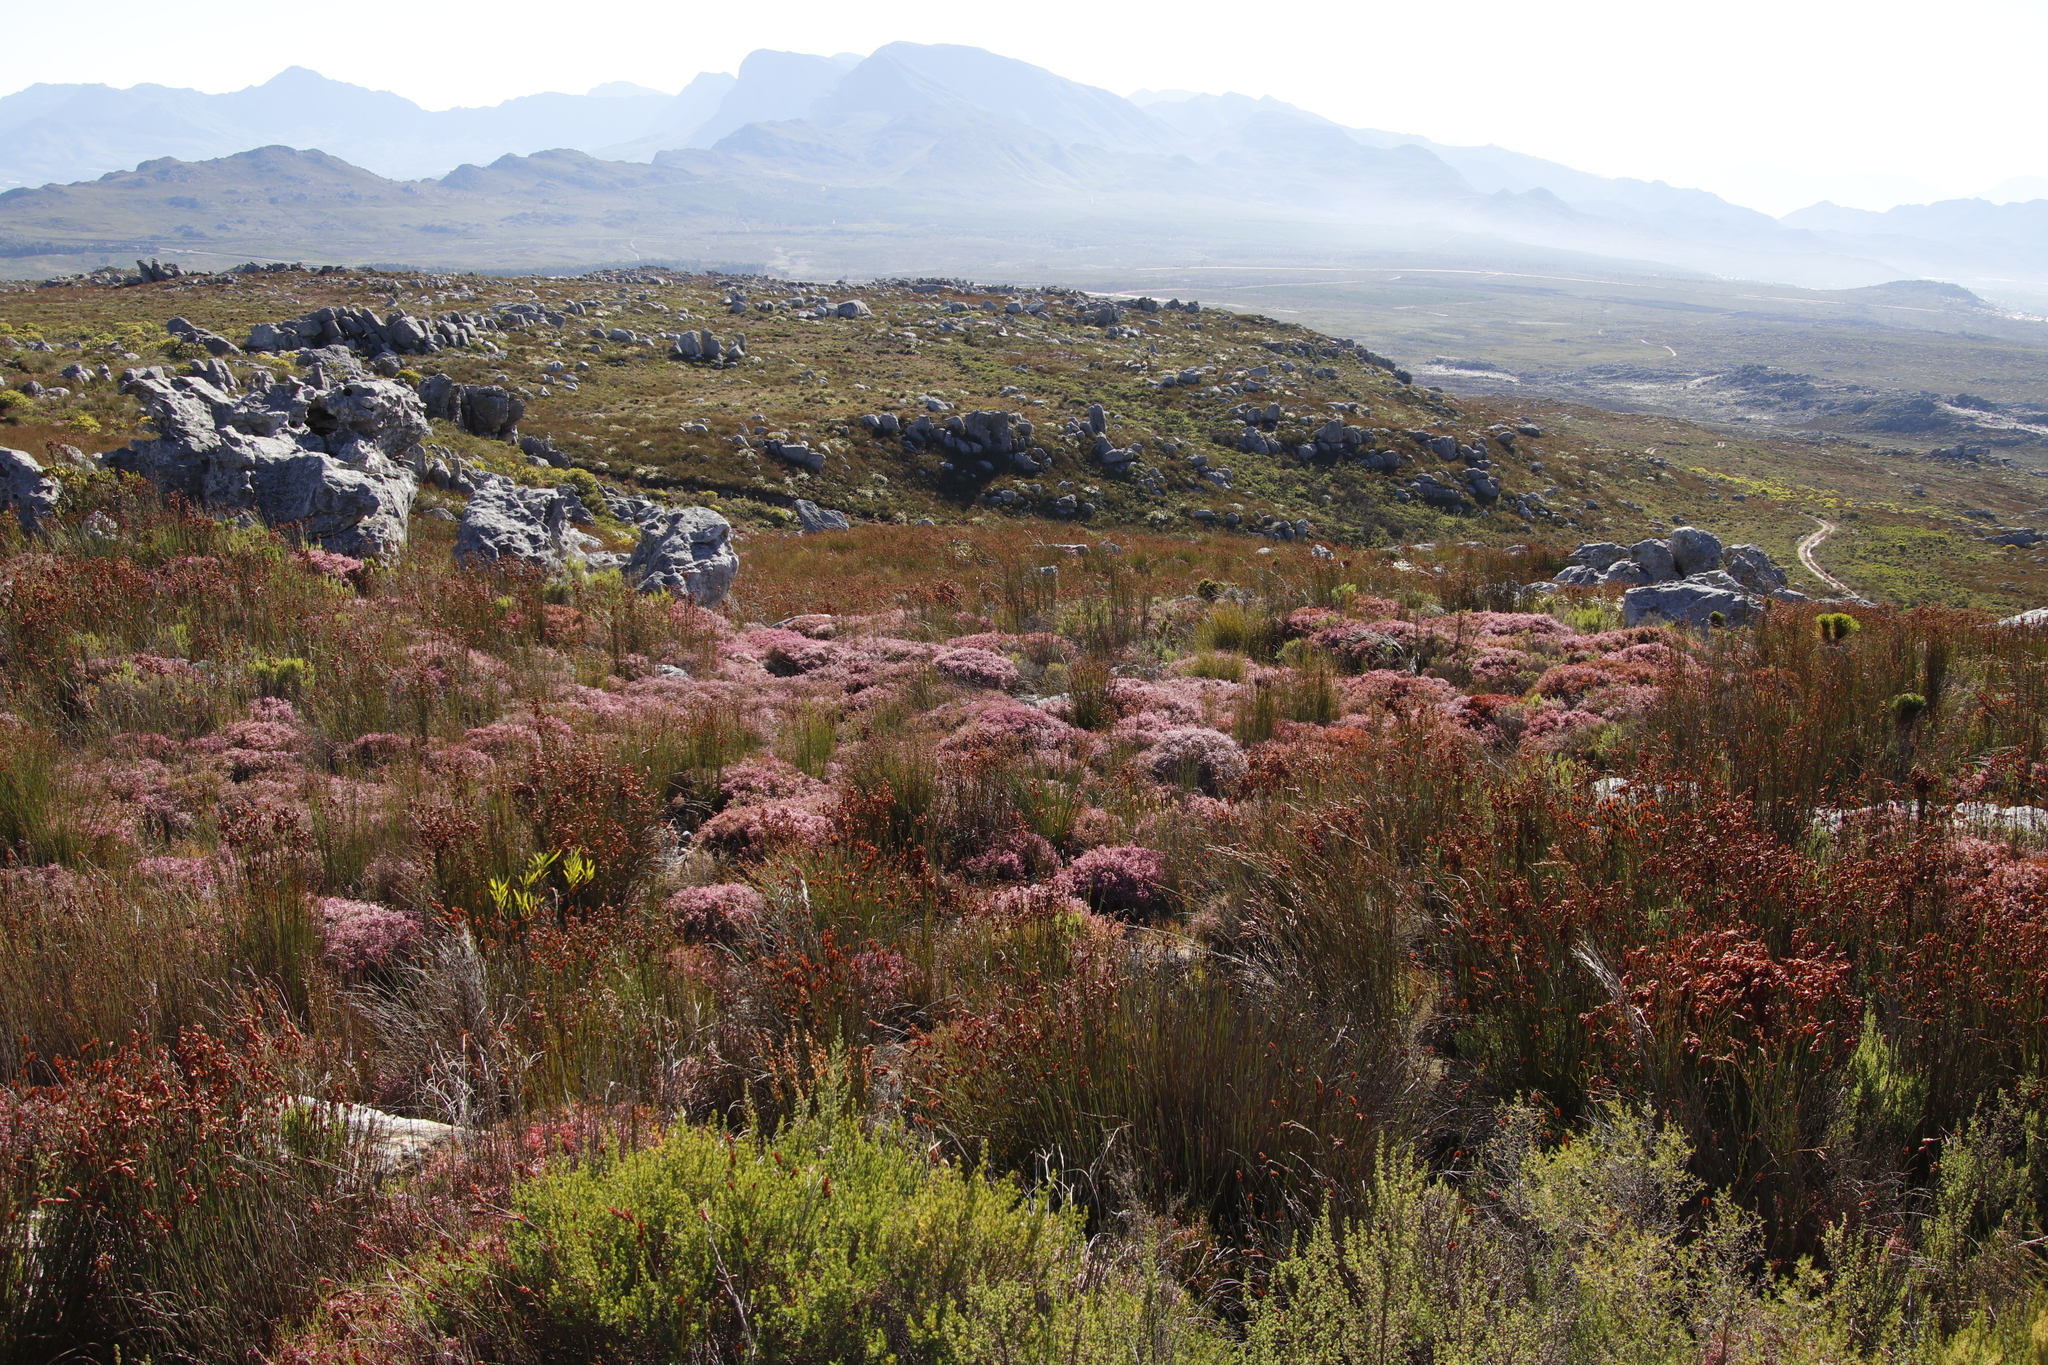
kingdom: Plantae
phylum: Tracheophyta
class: Magnoliopsida
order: Ericales
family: Ericaceae
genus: Erica
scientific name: Erica equisetifolia
